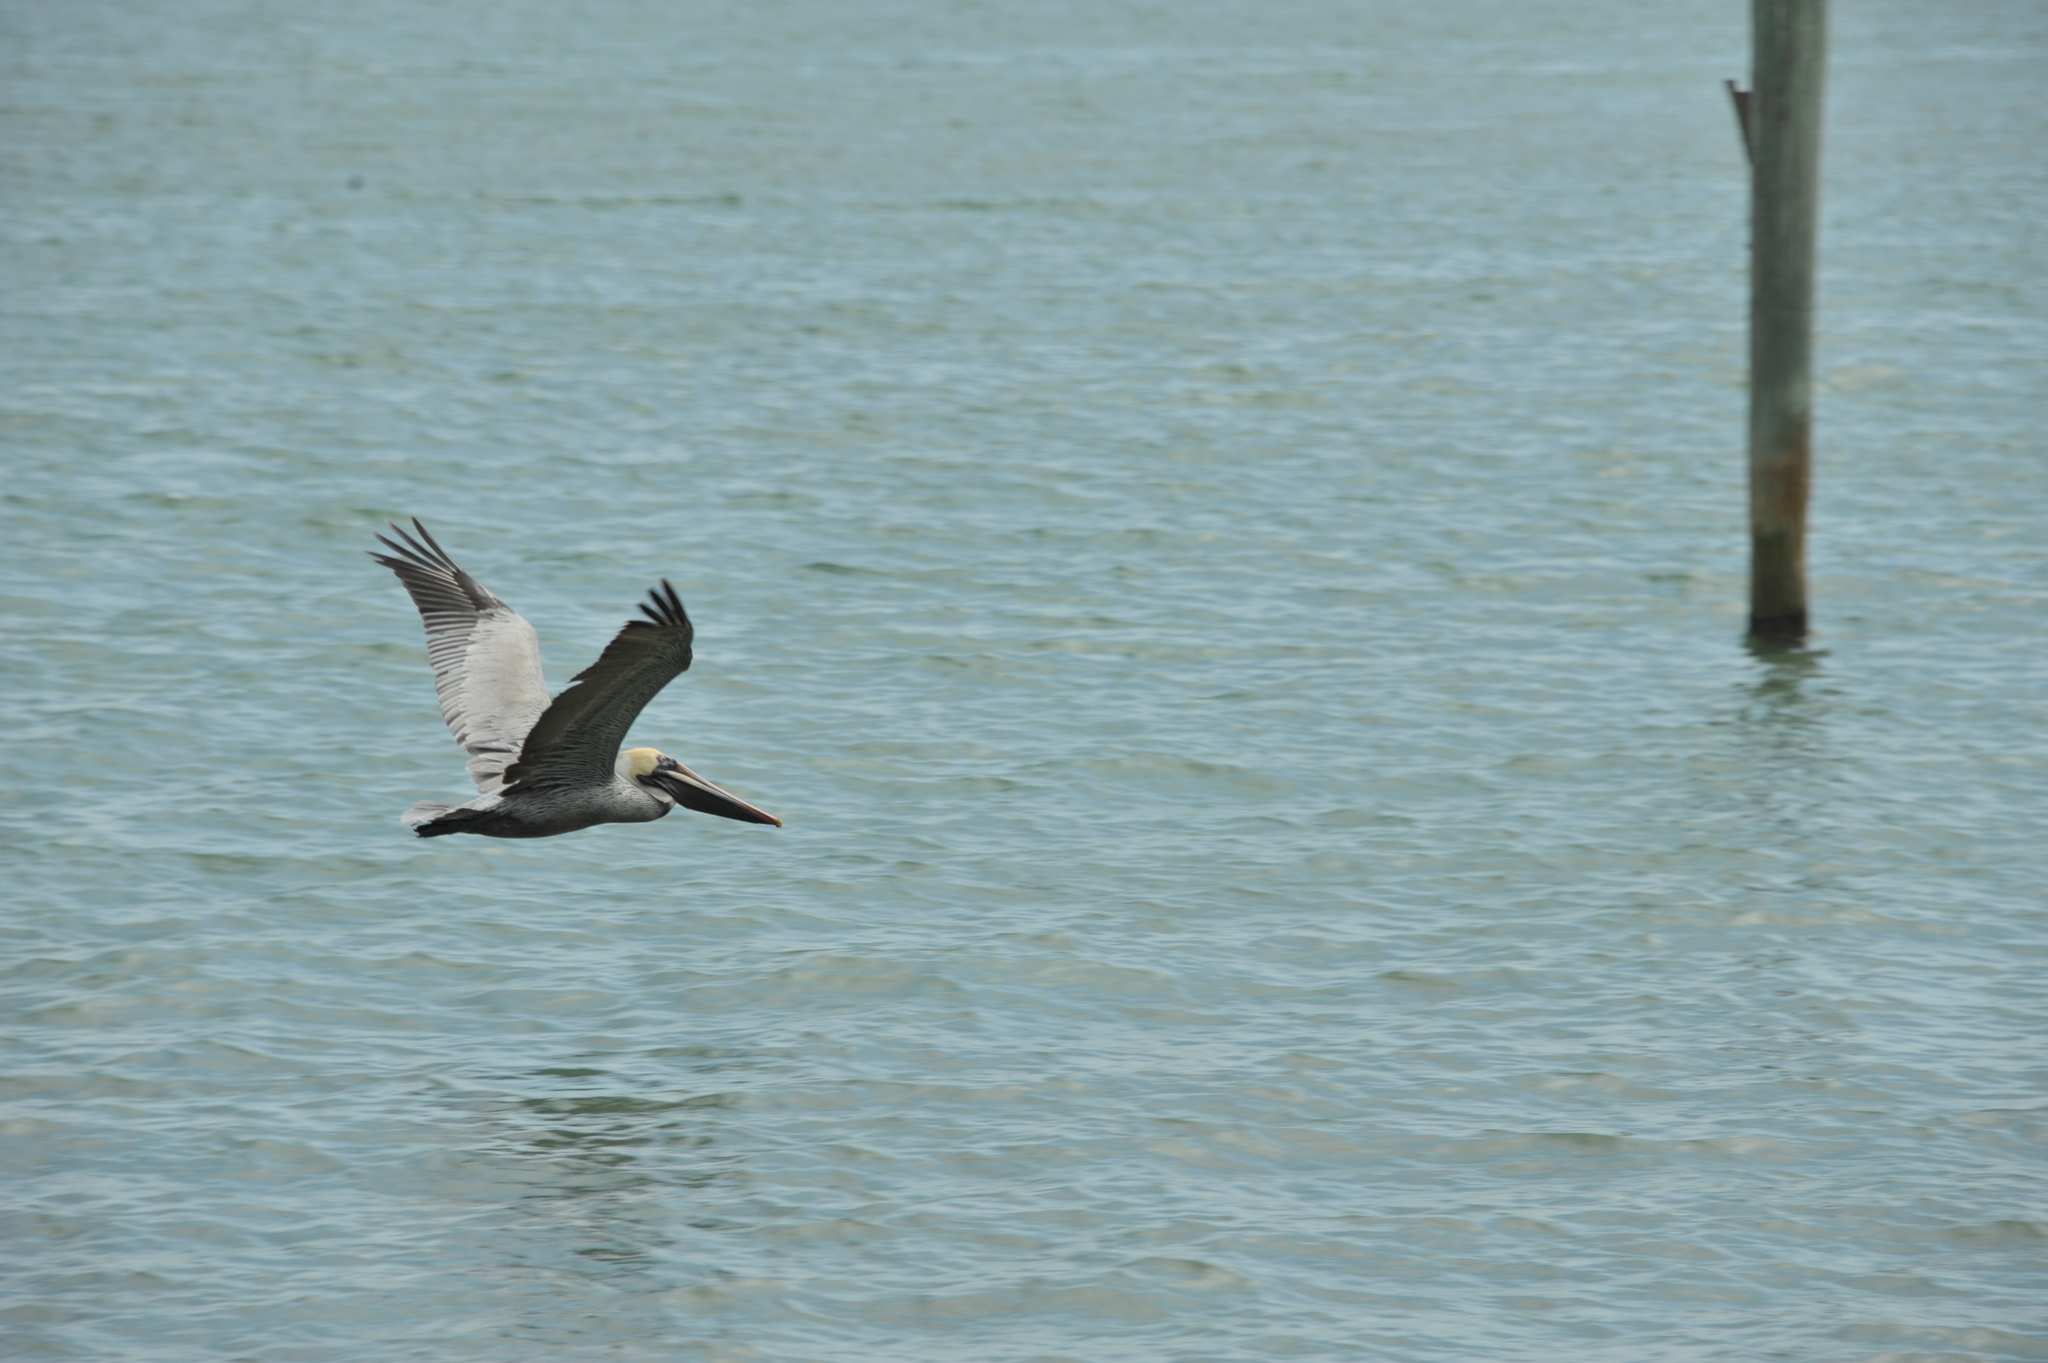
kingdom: Animalia
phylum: Chordata
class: Aves
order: Pelecaniformes
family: Pelecanidae
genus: Pelecanus
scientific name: Pelecanus occidentalis
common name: Brown pelican
